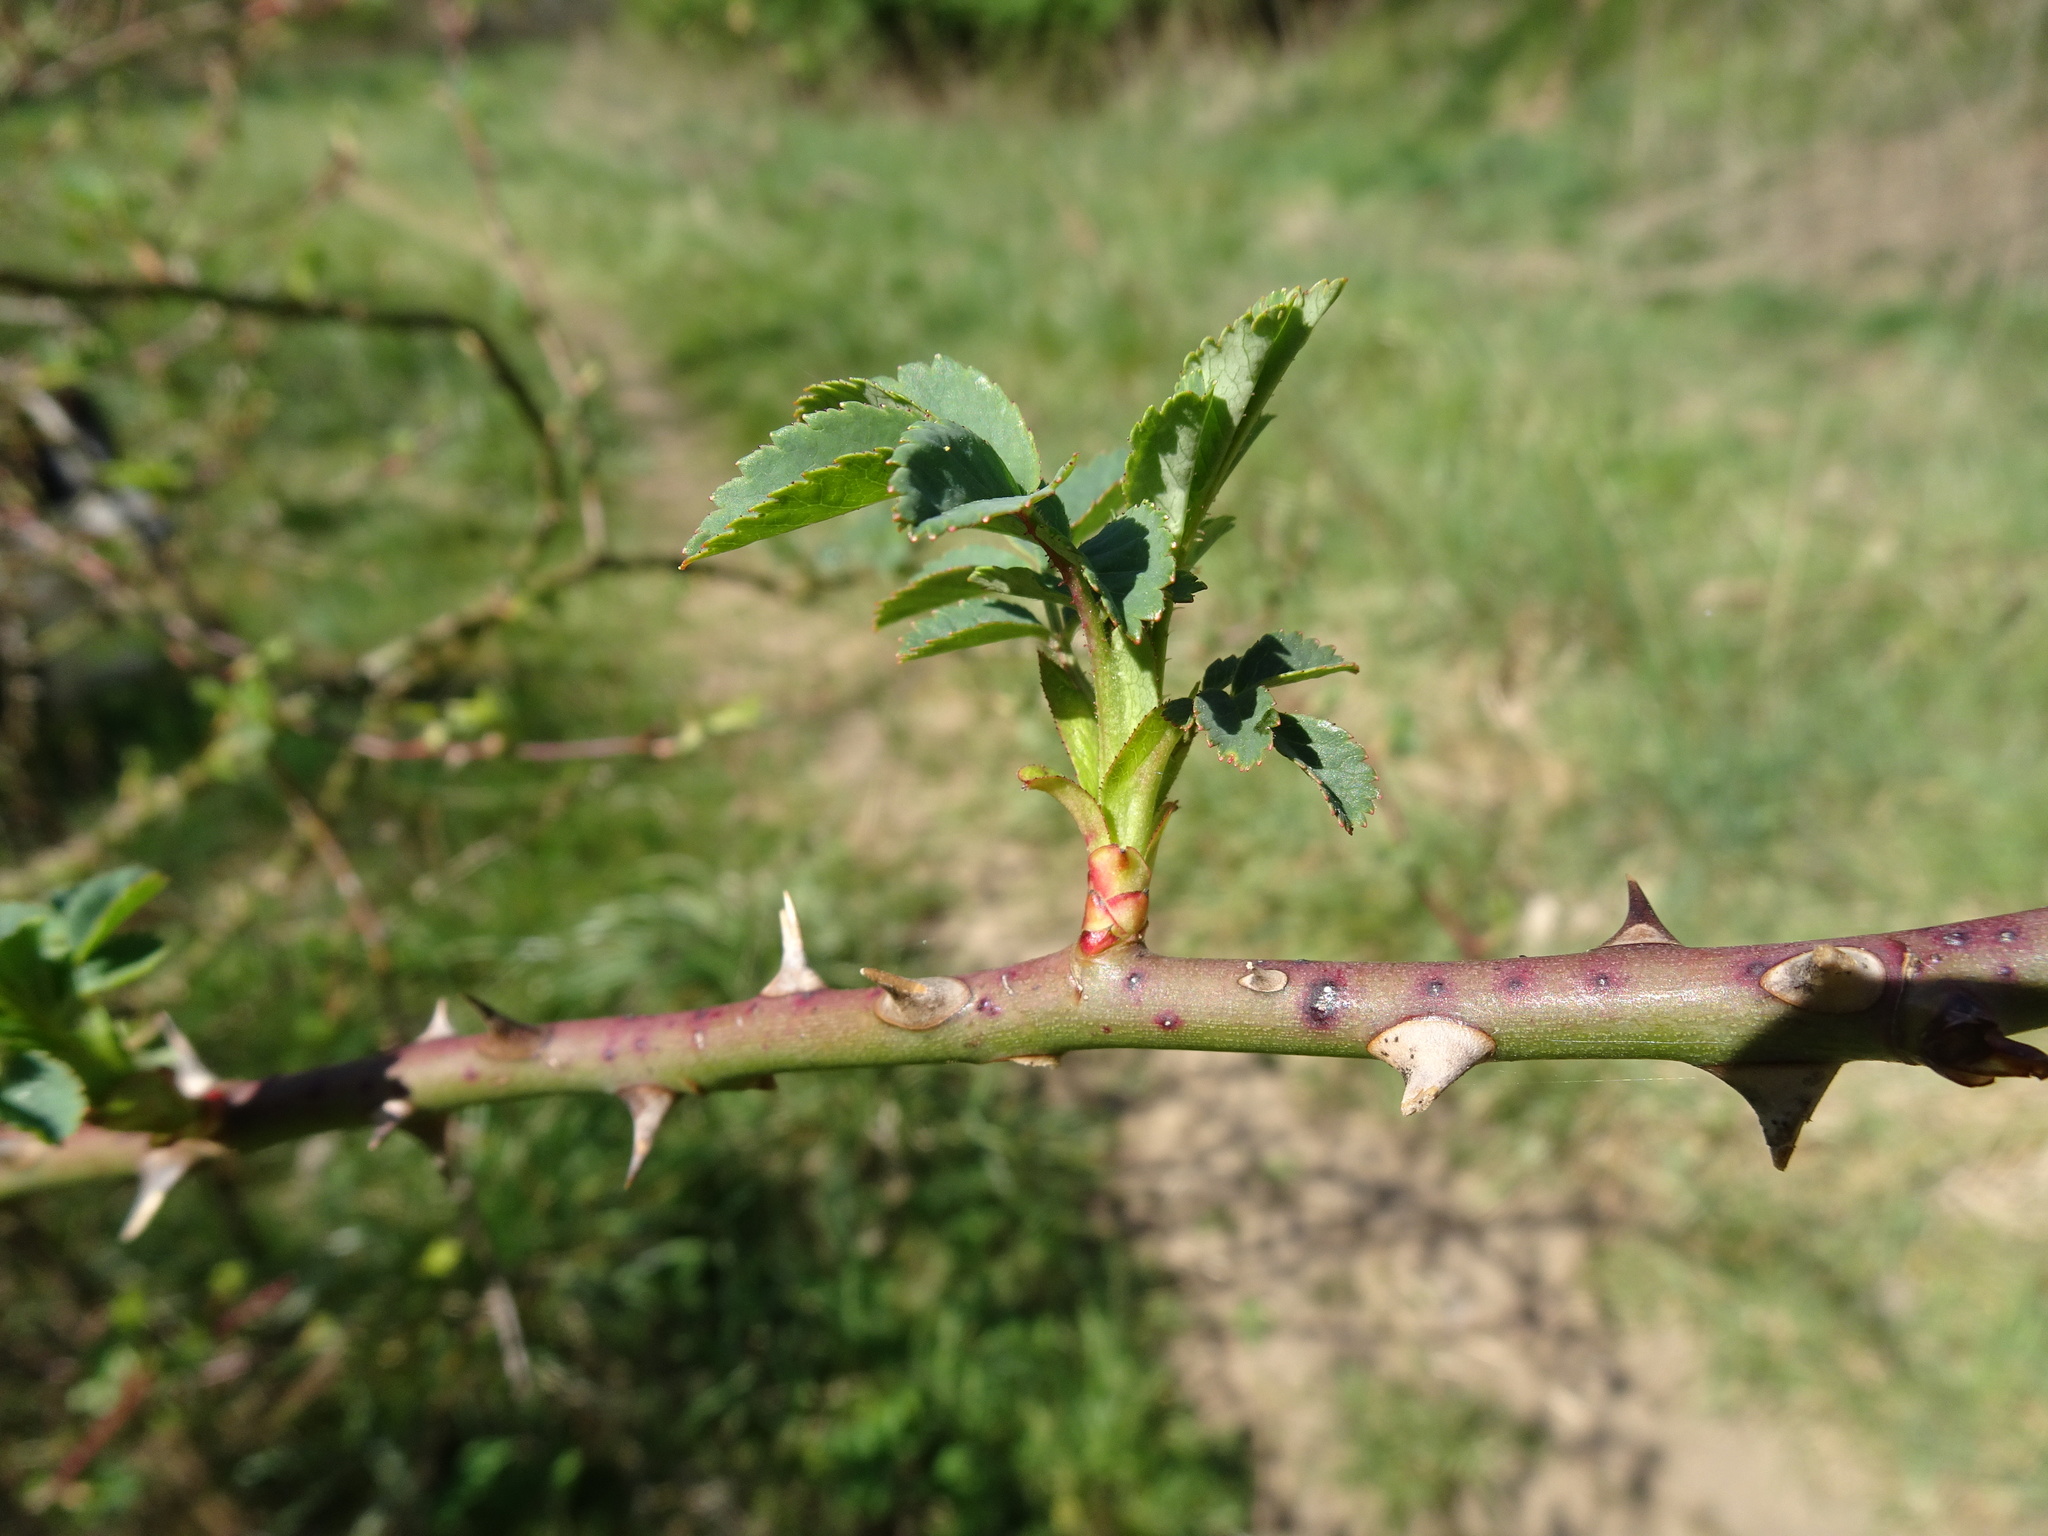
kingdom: Plantae
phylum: Tracheophyta
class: Magnoliopsida
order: Rosales
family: Rosaceae
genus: Rosa
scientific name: Rosa canina
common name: Dog rose
